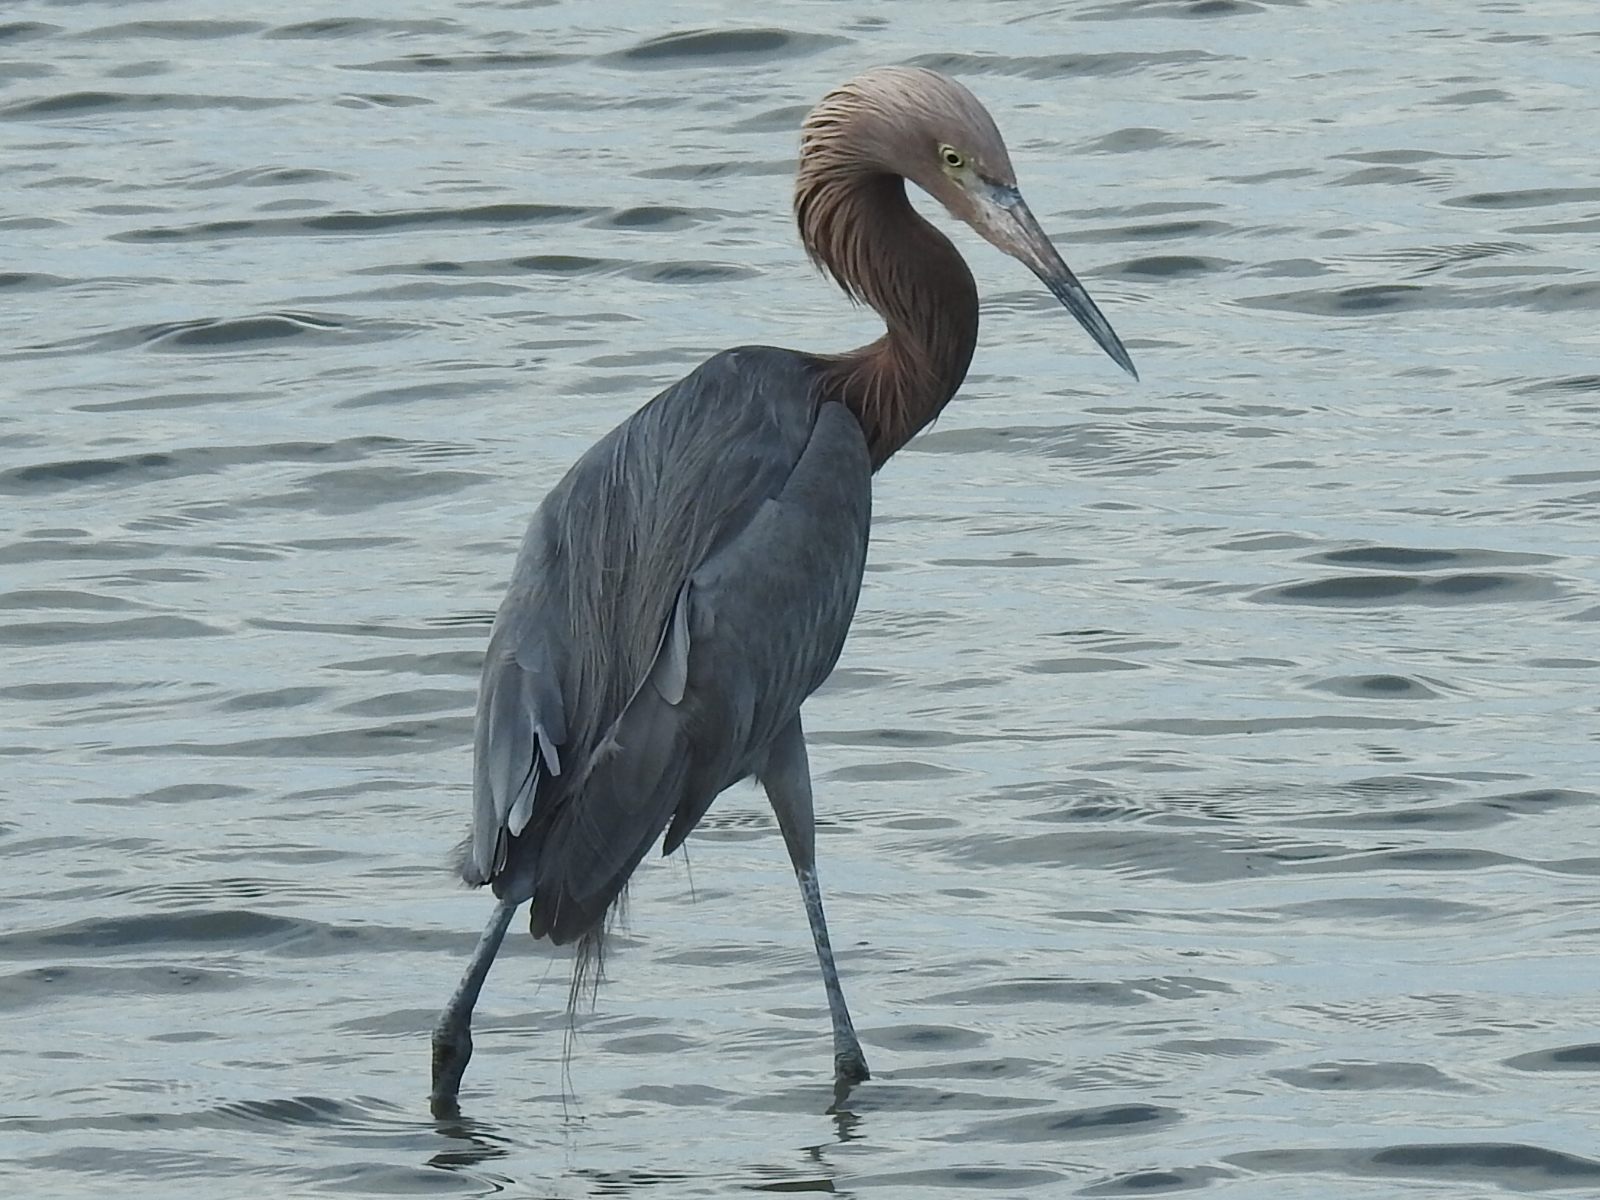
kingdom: Animalia
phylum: Chordata
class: Aves
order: Pelecaniformes
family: Ardeidae
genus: Egretta
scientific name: Egretta rufescens
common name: Reddish egret
